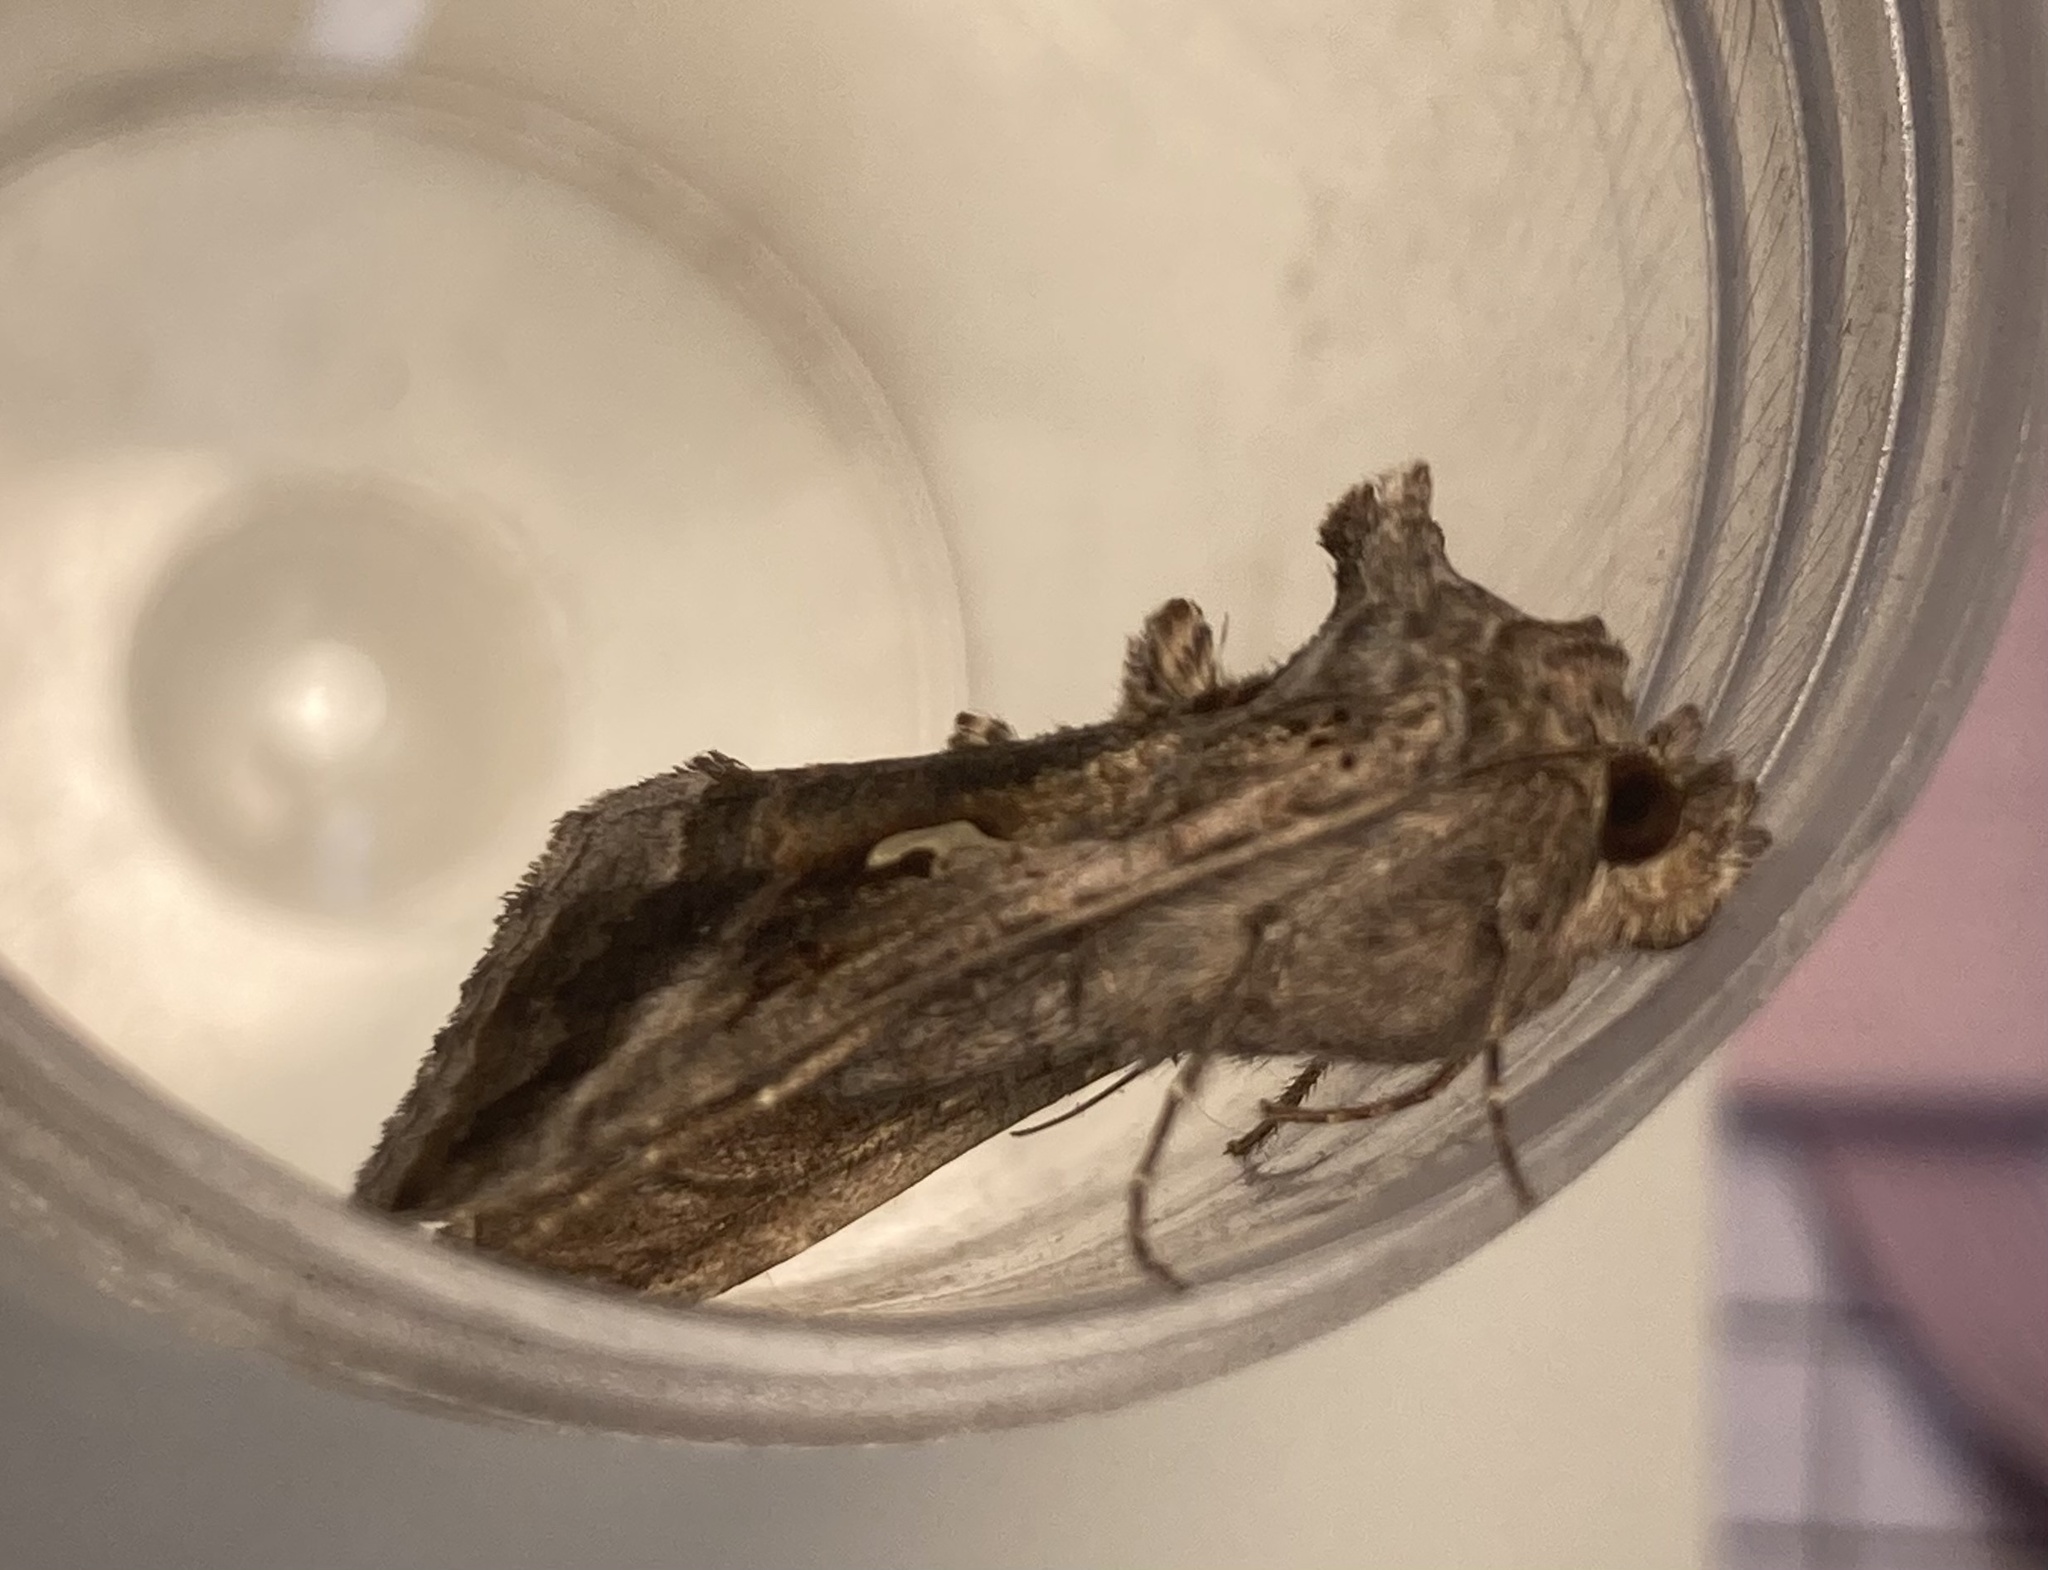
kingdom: Animalia
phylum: Arthropoda
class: Insecta
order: Lepidoptera
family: Noctuidae
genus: Autographa
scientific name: Autographa gamma
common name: Silver y
